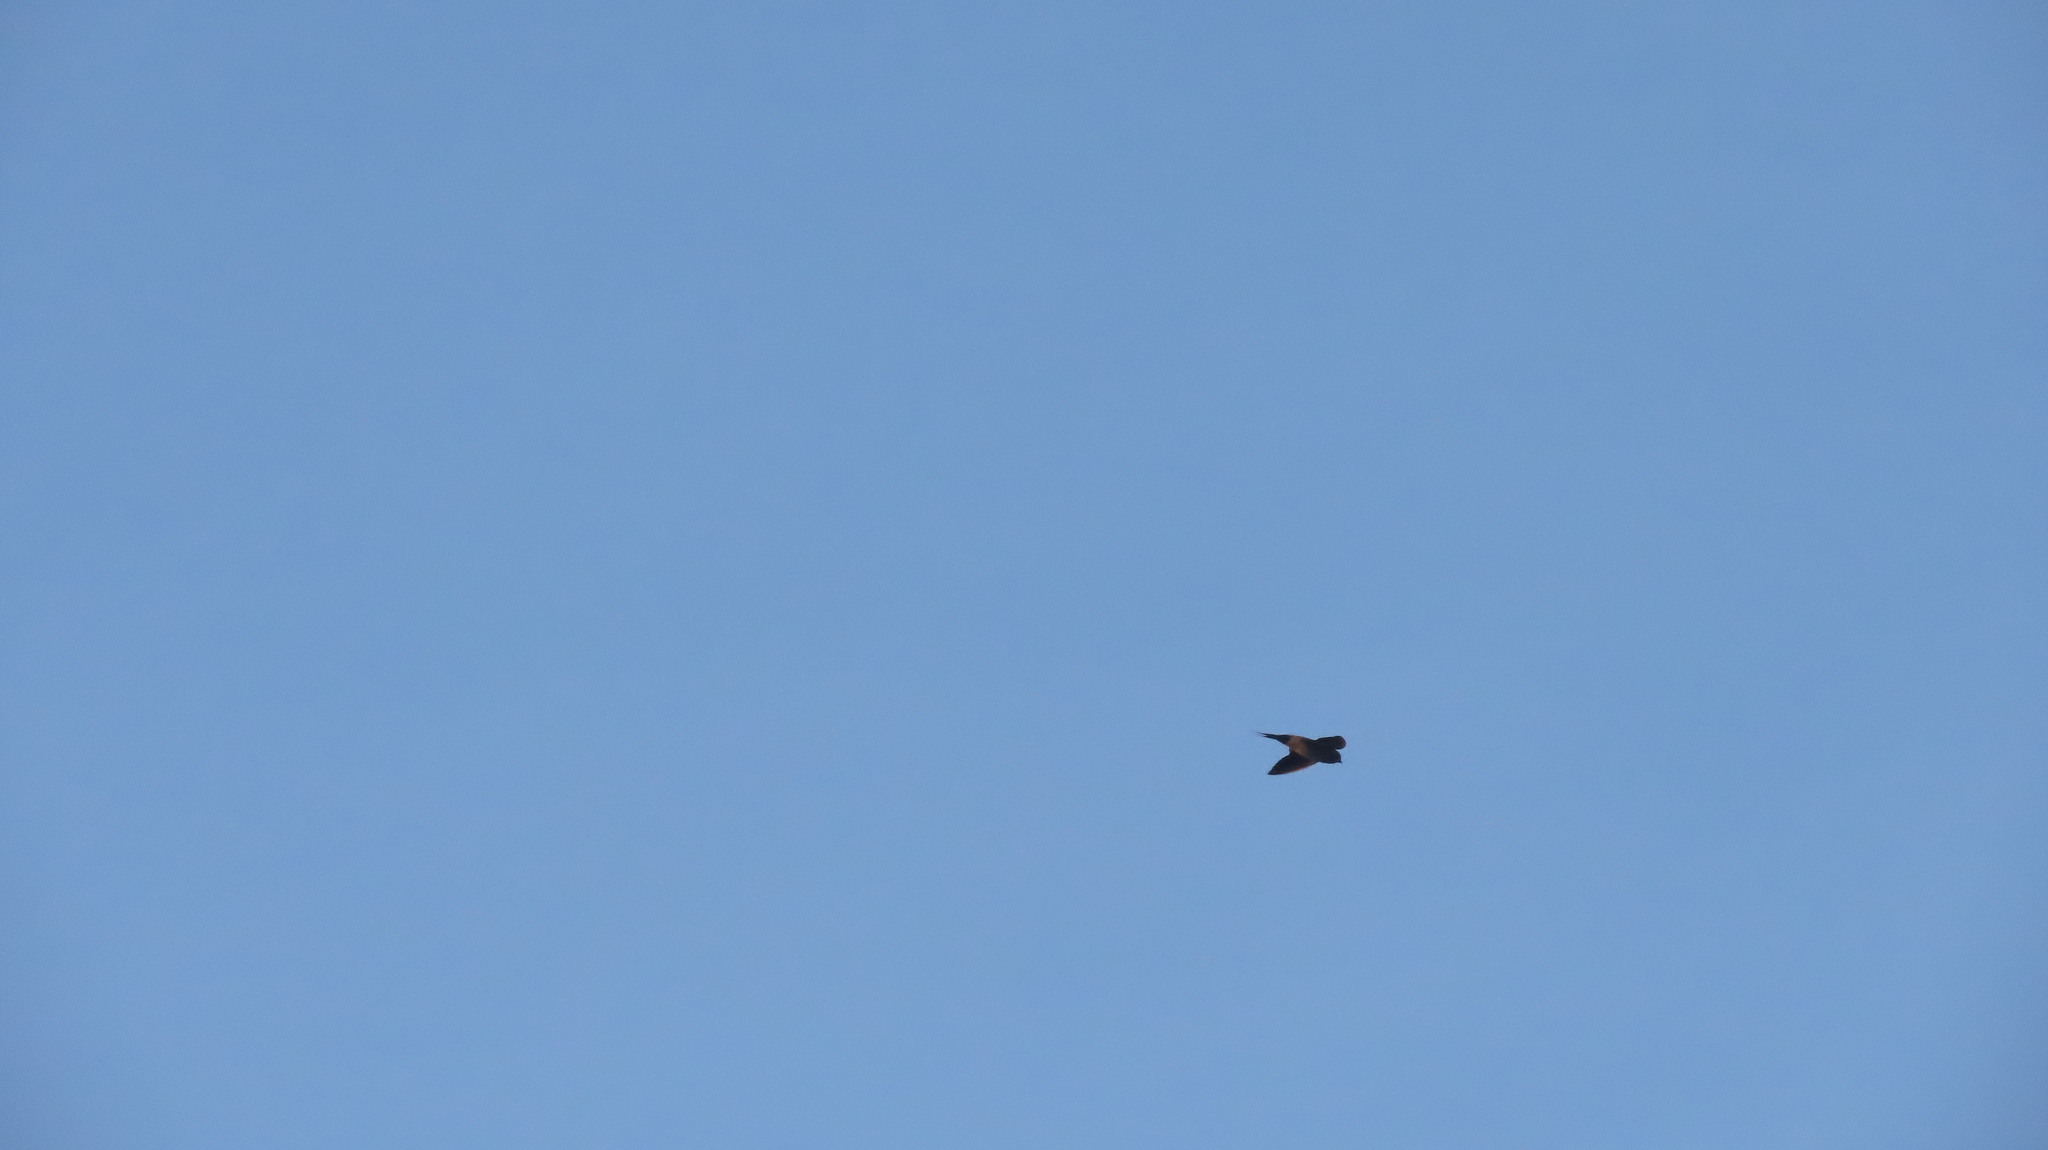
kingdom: Animalia
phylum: Chordata
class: Aves
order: Passeriformes
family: Hirundinidae
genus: Hirundo
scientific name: Hirundo rustica
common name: Barn swallow
